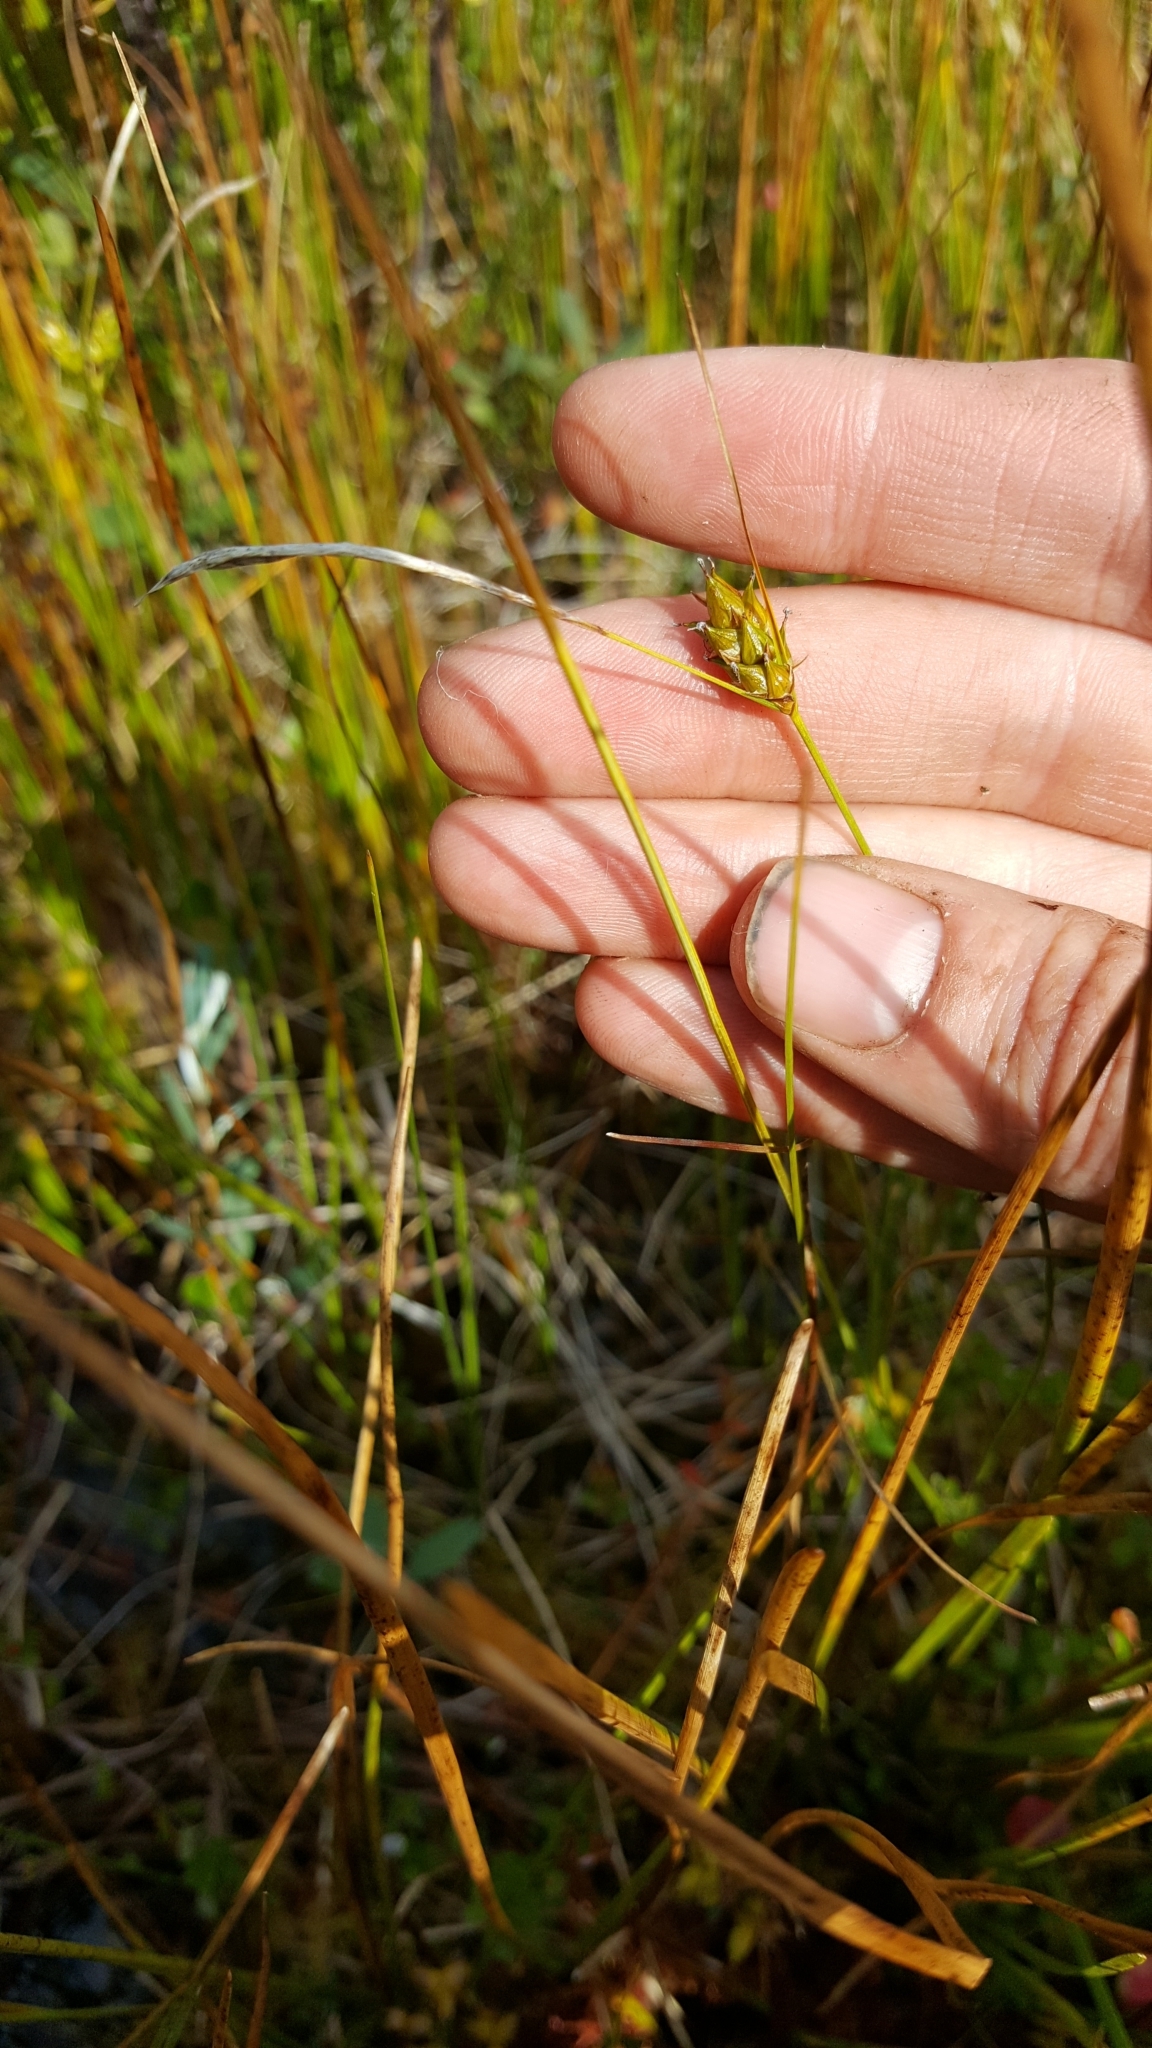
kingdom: Plantae
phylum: Tracheophyta
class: Liliopsida
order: Poales
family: Cyperaceae
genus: Carex
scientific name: Carex oligosperma
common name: Few-seed sedge
